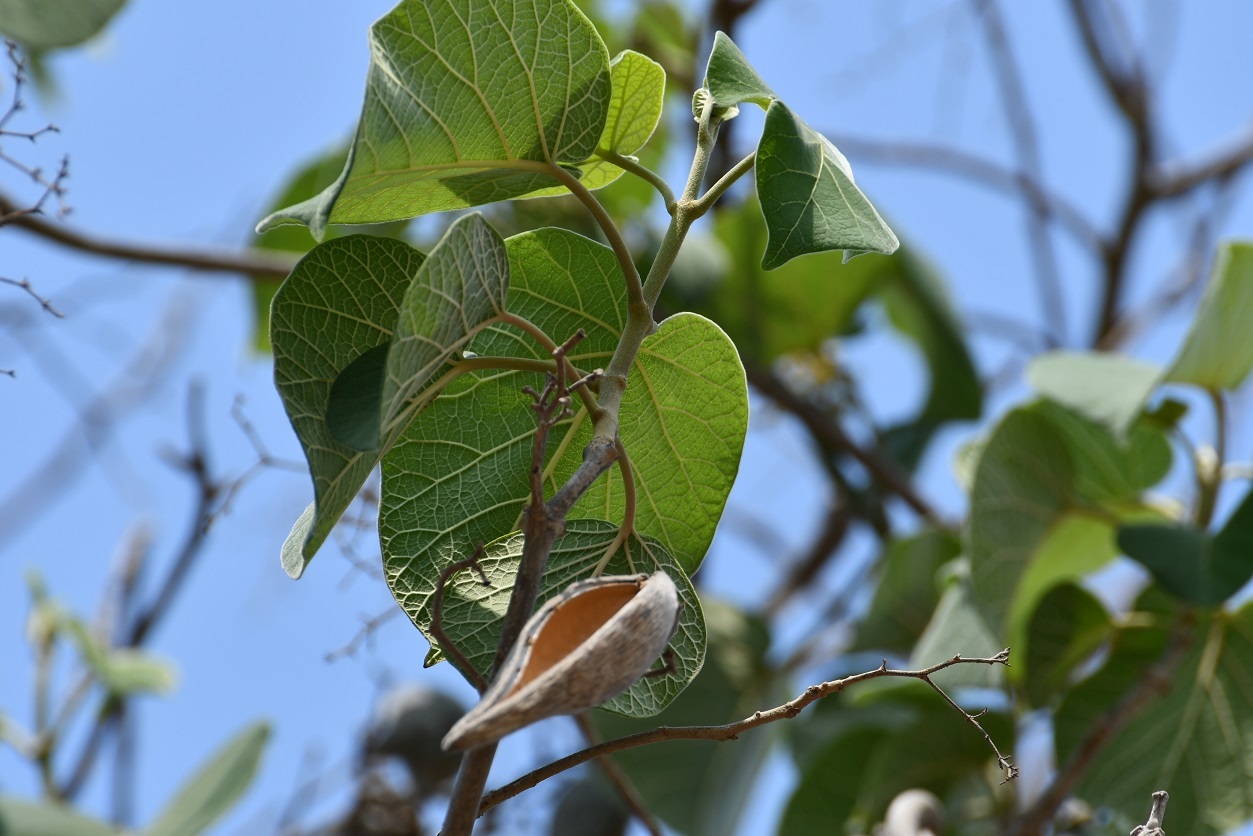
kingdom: Plantae
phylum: Tracheophyta
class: Magnoliopsida
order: Gentianales
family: Apocynaceae
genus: Ruehssia
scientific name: Ruehssia mexicana
